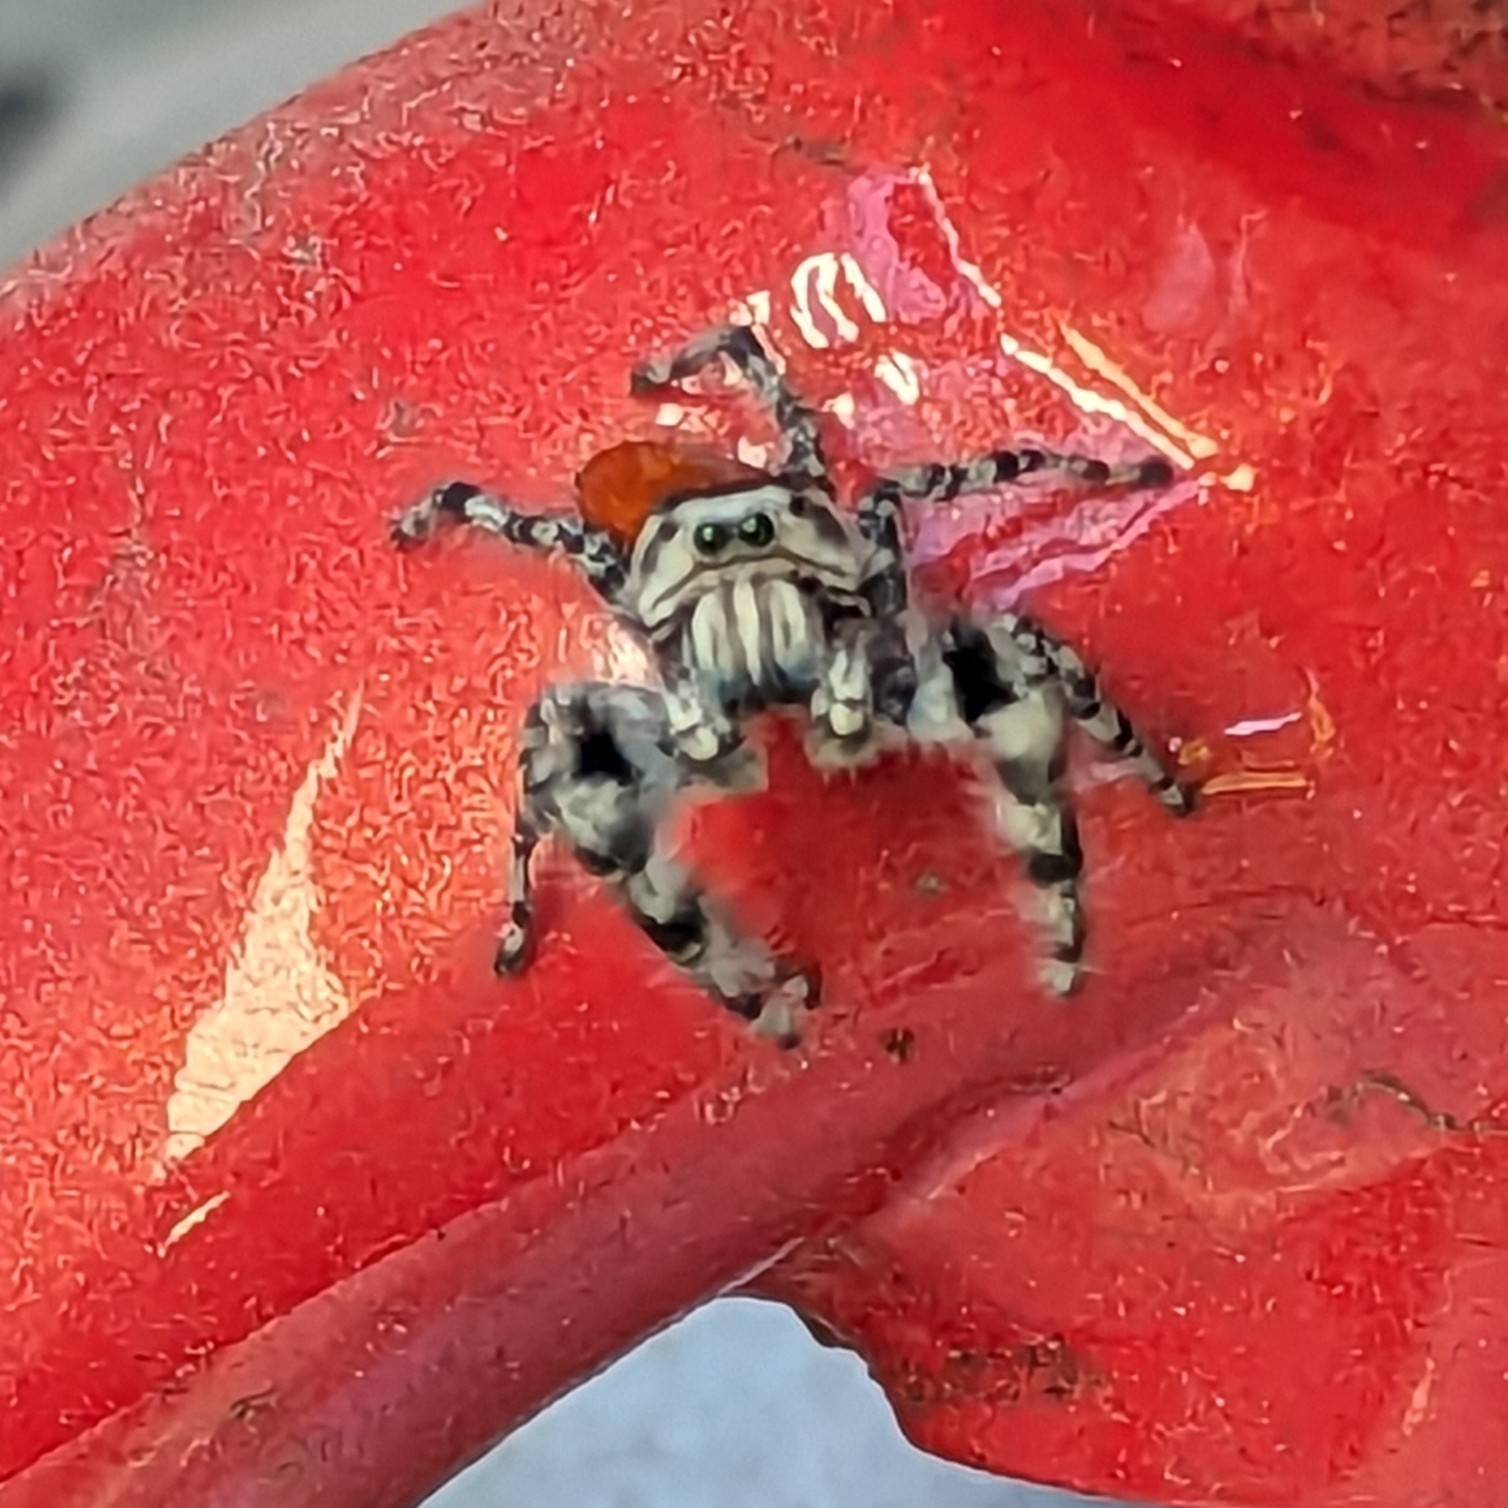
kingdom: Animalia
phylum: Arthropoda
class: Arachnida
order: Araneae
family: Salticidae
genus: Phidippus
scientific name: Phidippus adumbratus
